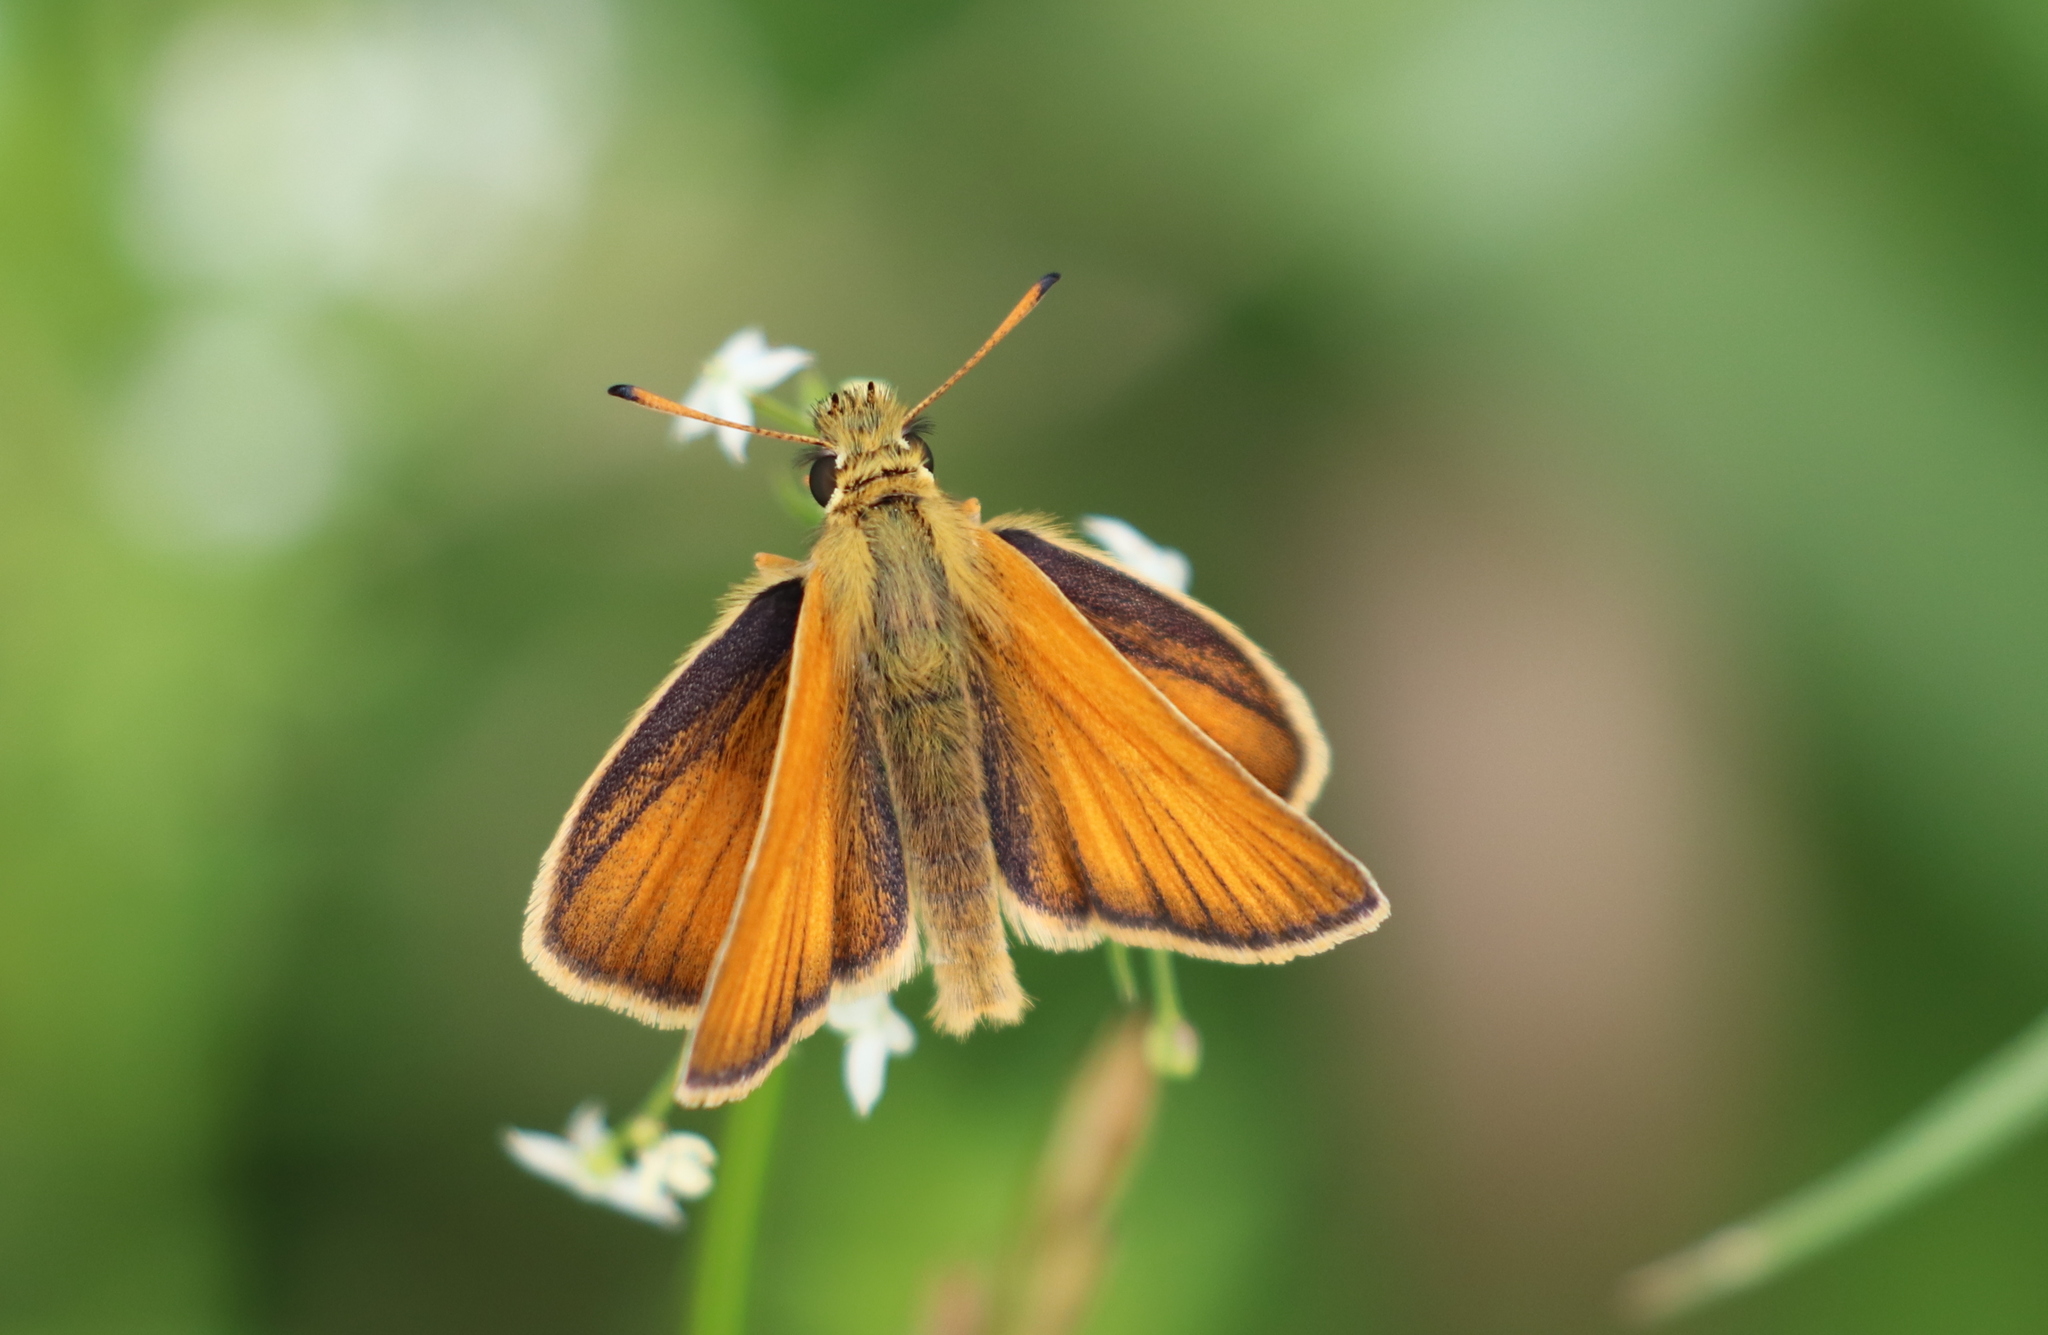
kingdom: Animalia
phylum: Arthropoda
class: Insecta
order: Lepidoptera
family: Hesperiidae
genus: Thymelicus
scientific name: Thymelicus lineola
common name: Essex skipper
